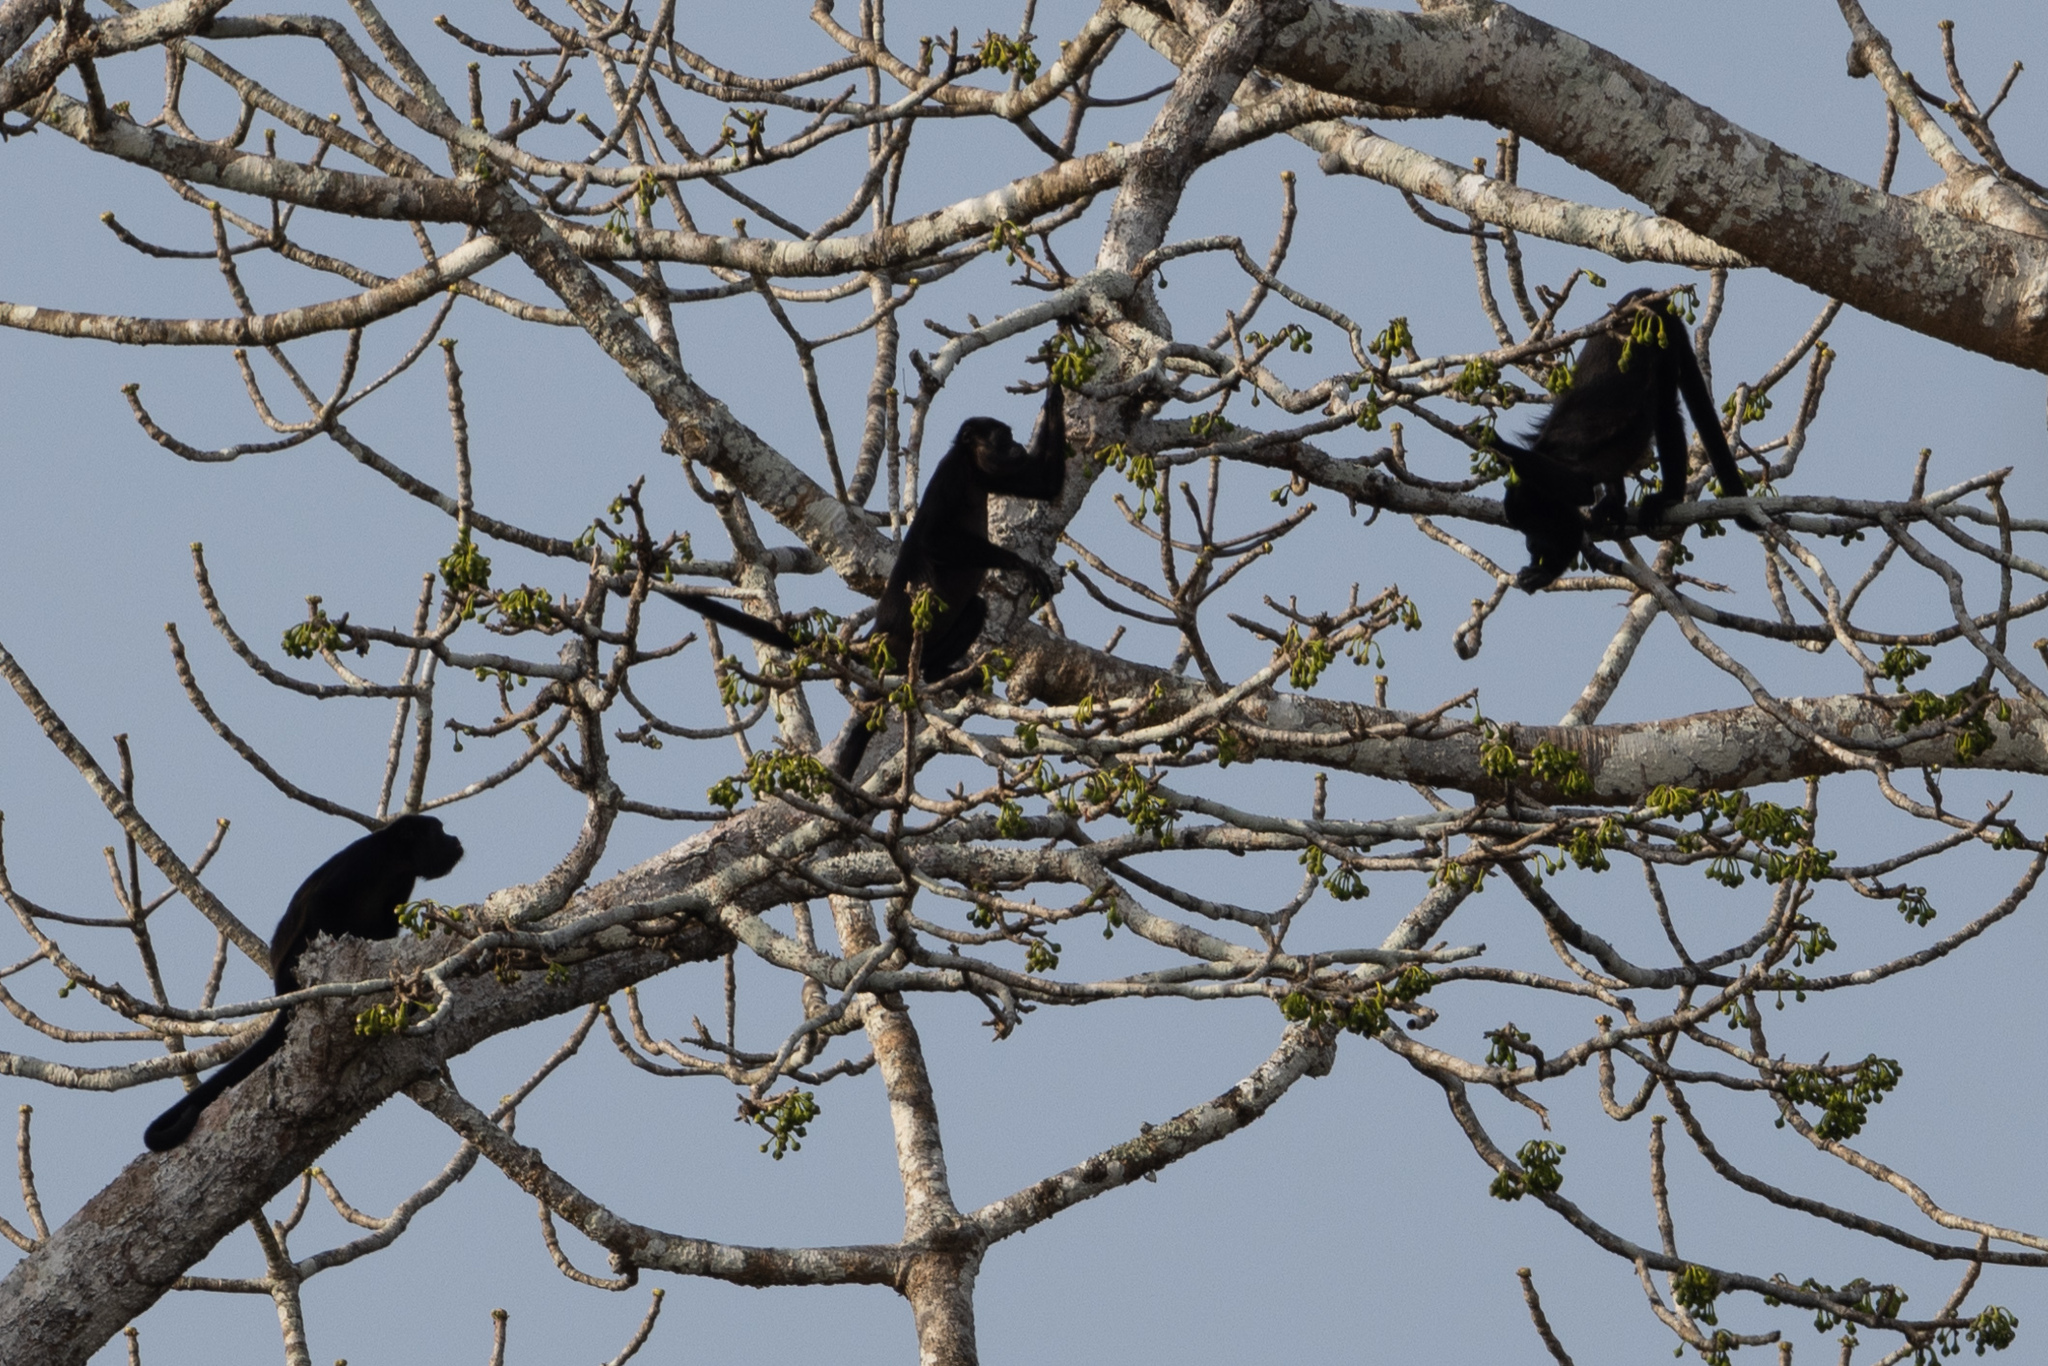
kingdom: Animalia
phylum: Chordata
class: Mammalia
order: Primates
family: Atelidae
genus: Alouatta
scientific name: Alouatta palliata
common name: Mantled howler
